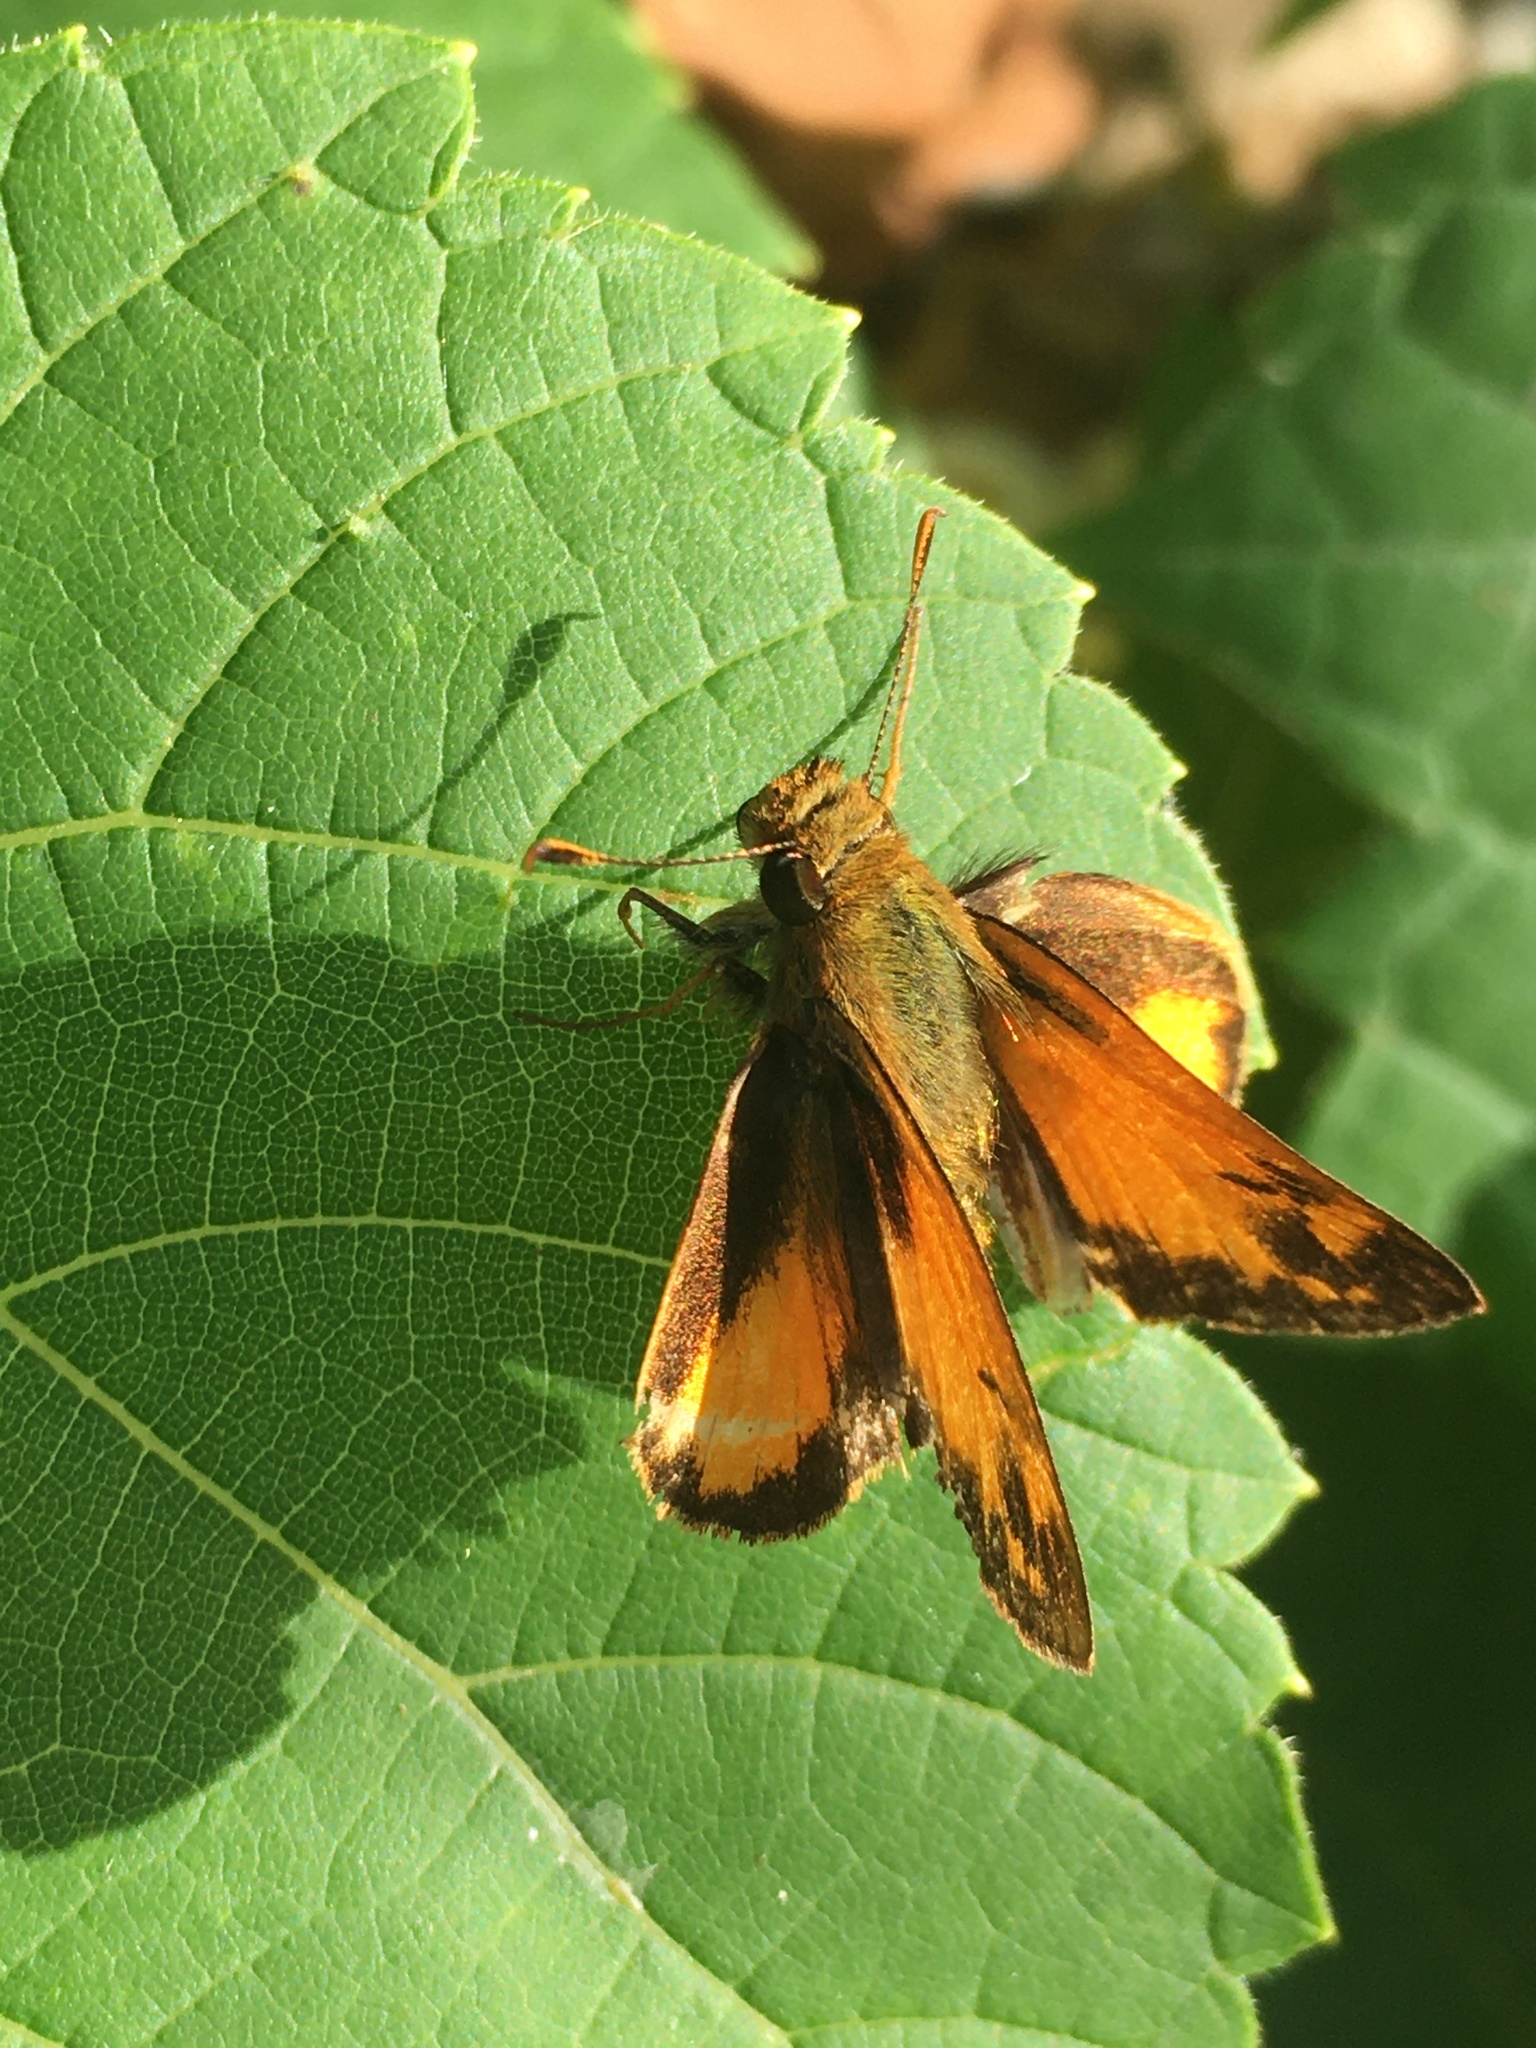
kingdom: Animalia
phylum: Arthropoda
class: Insecta
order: Lepidoptera
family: Hesperiidae
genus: Lon
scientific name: Lon zabulon
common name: Zabulon skipper
